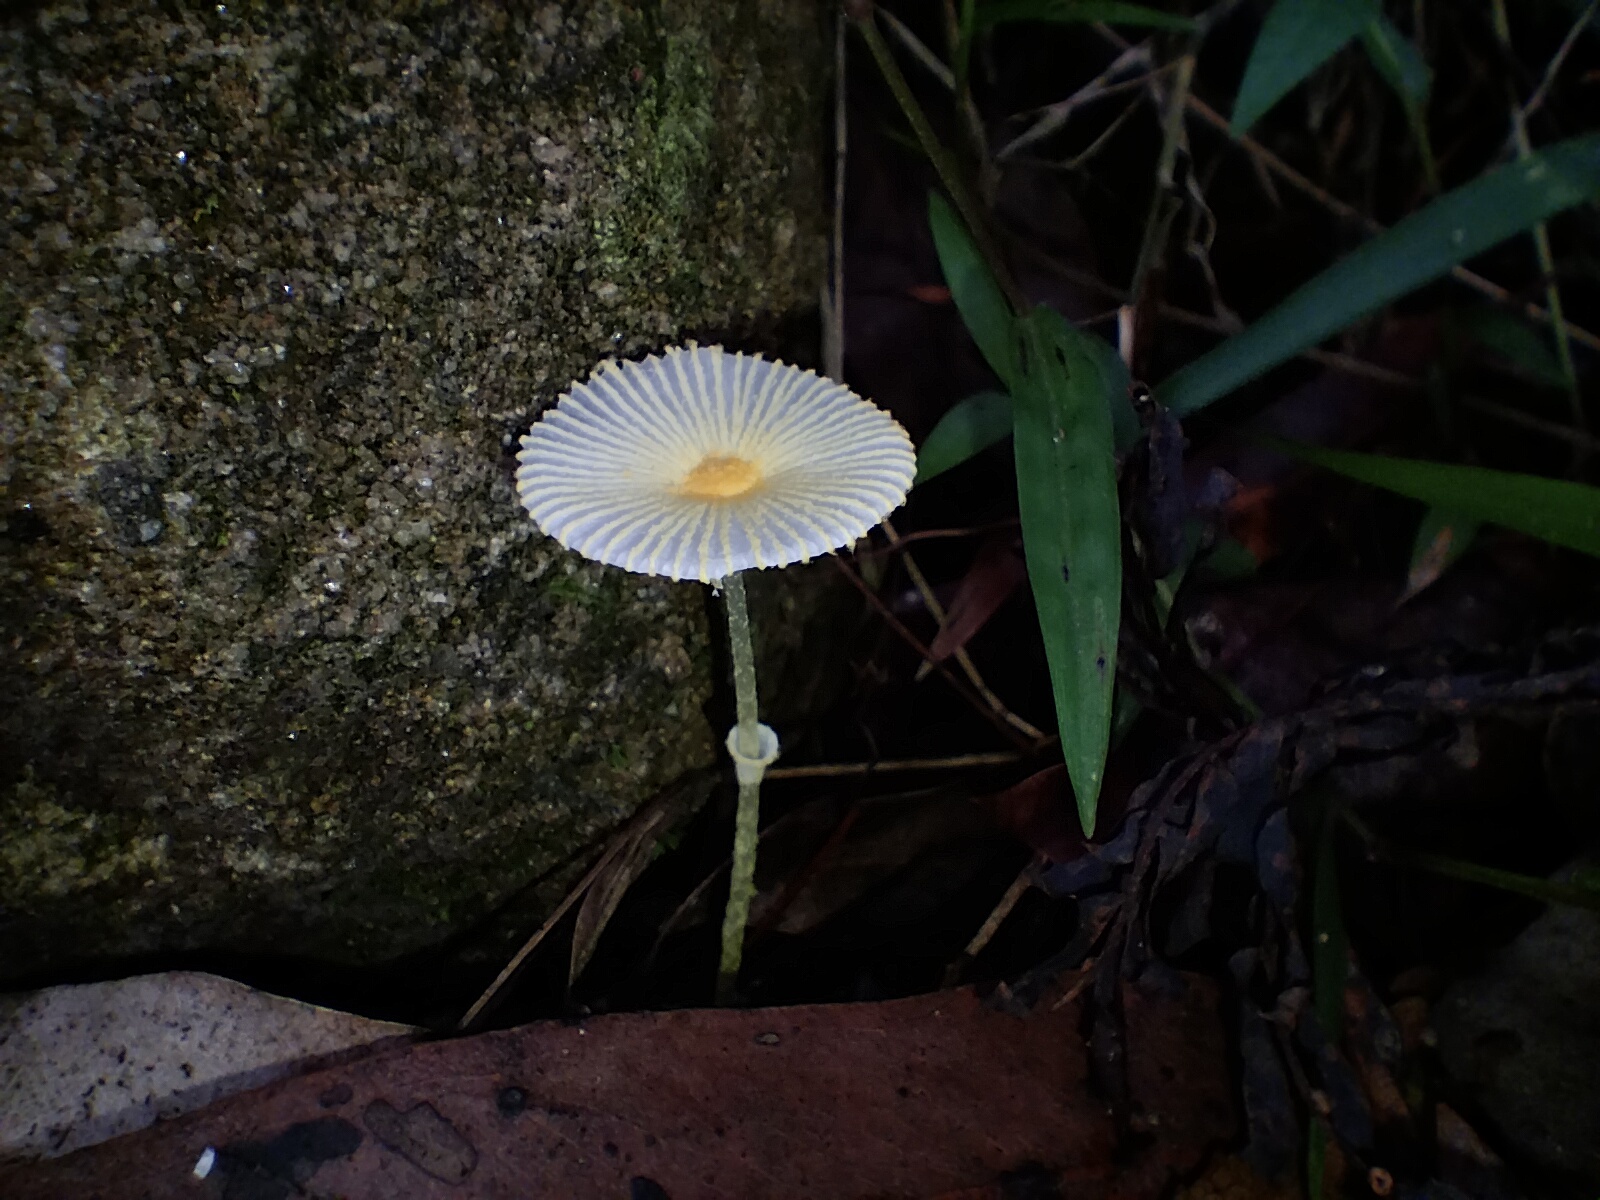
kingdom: Fungi
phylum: Basidiomycota
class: Agaricomycetes
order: Agaricales
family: Agaricaceae
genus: Leucocoprinus
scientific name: Leucocoprinus fragilissimus
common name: Fragile dapperling
